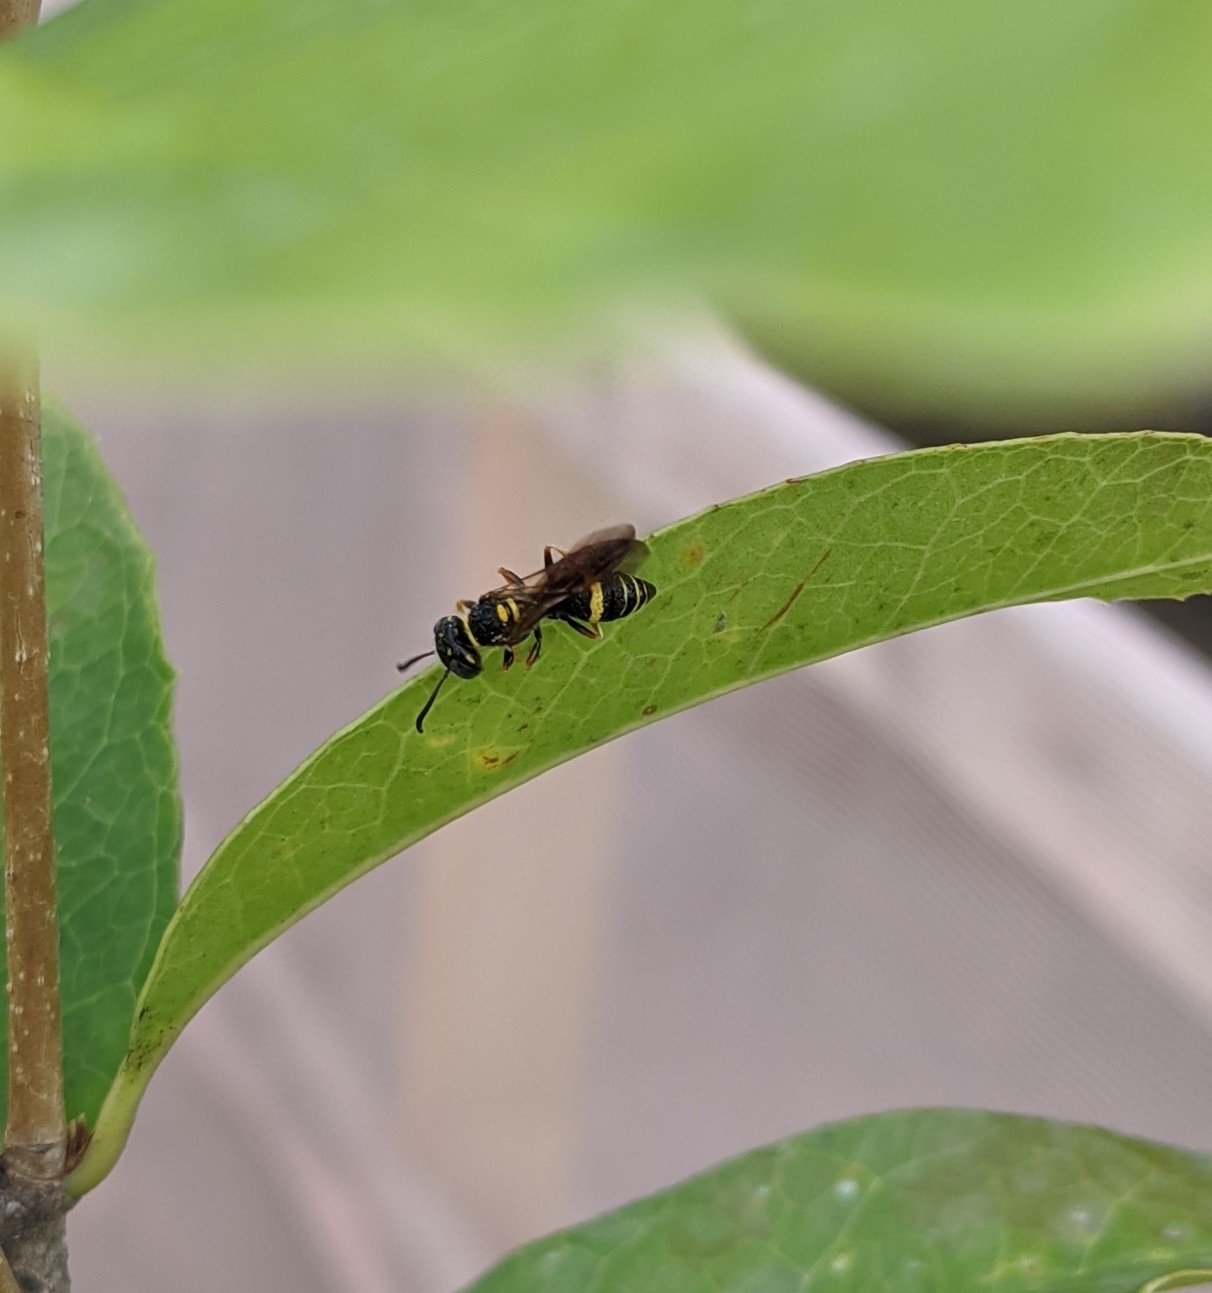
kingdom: Animalia
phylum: Arthropoda
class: Insecta
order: Hymenoptera
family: Crabronidae
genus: Philanthus
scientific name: Philanthus gibbosus
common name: Humped beewolf
